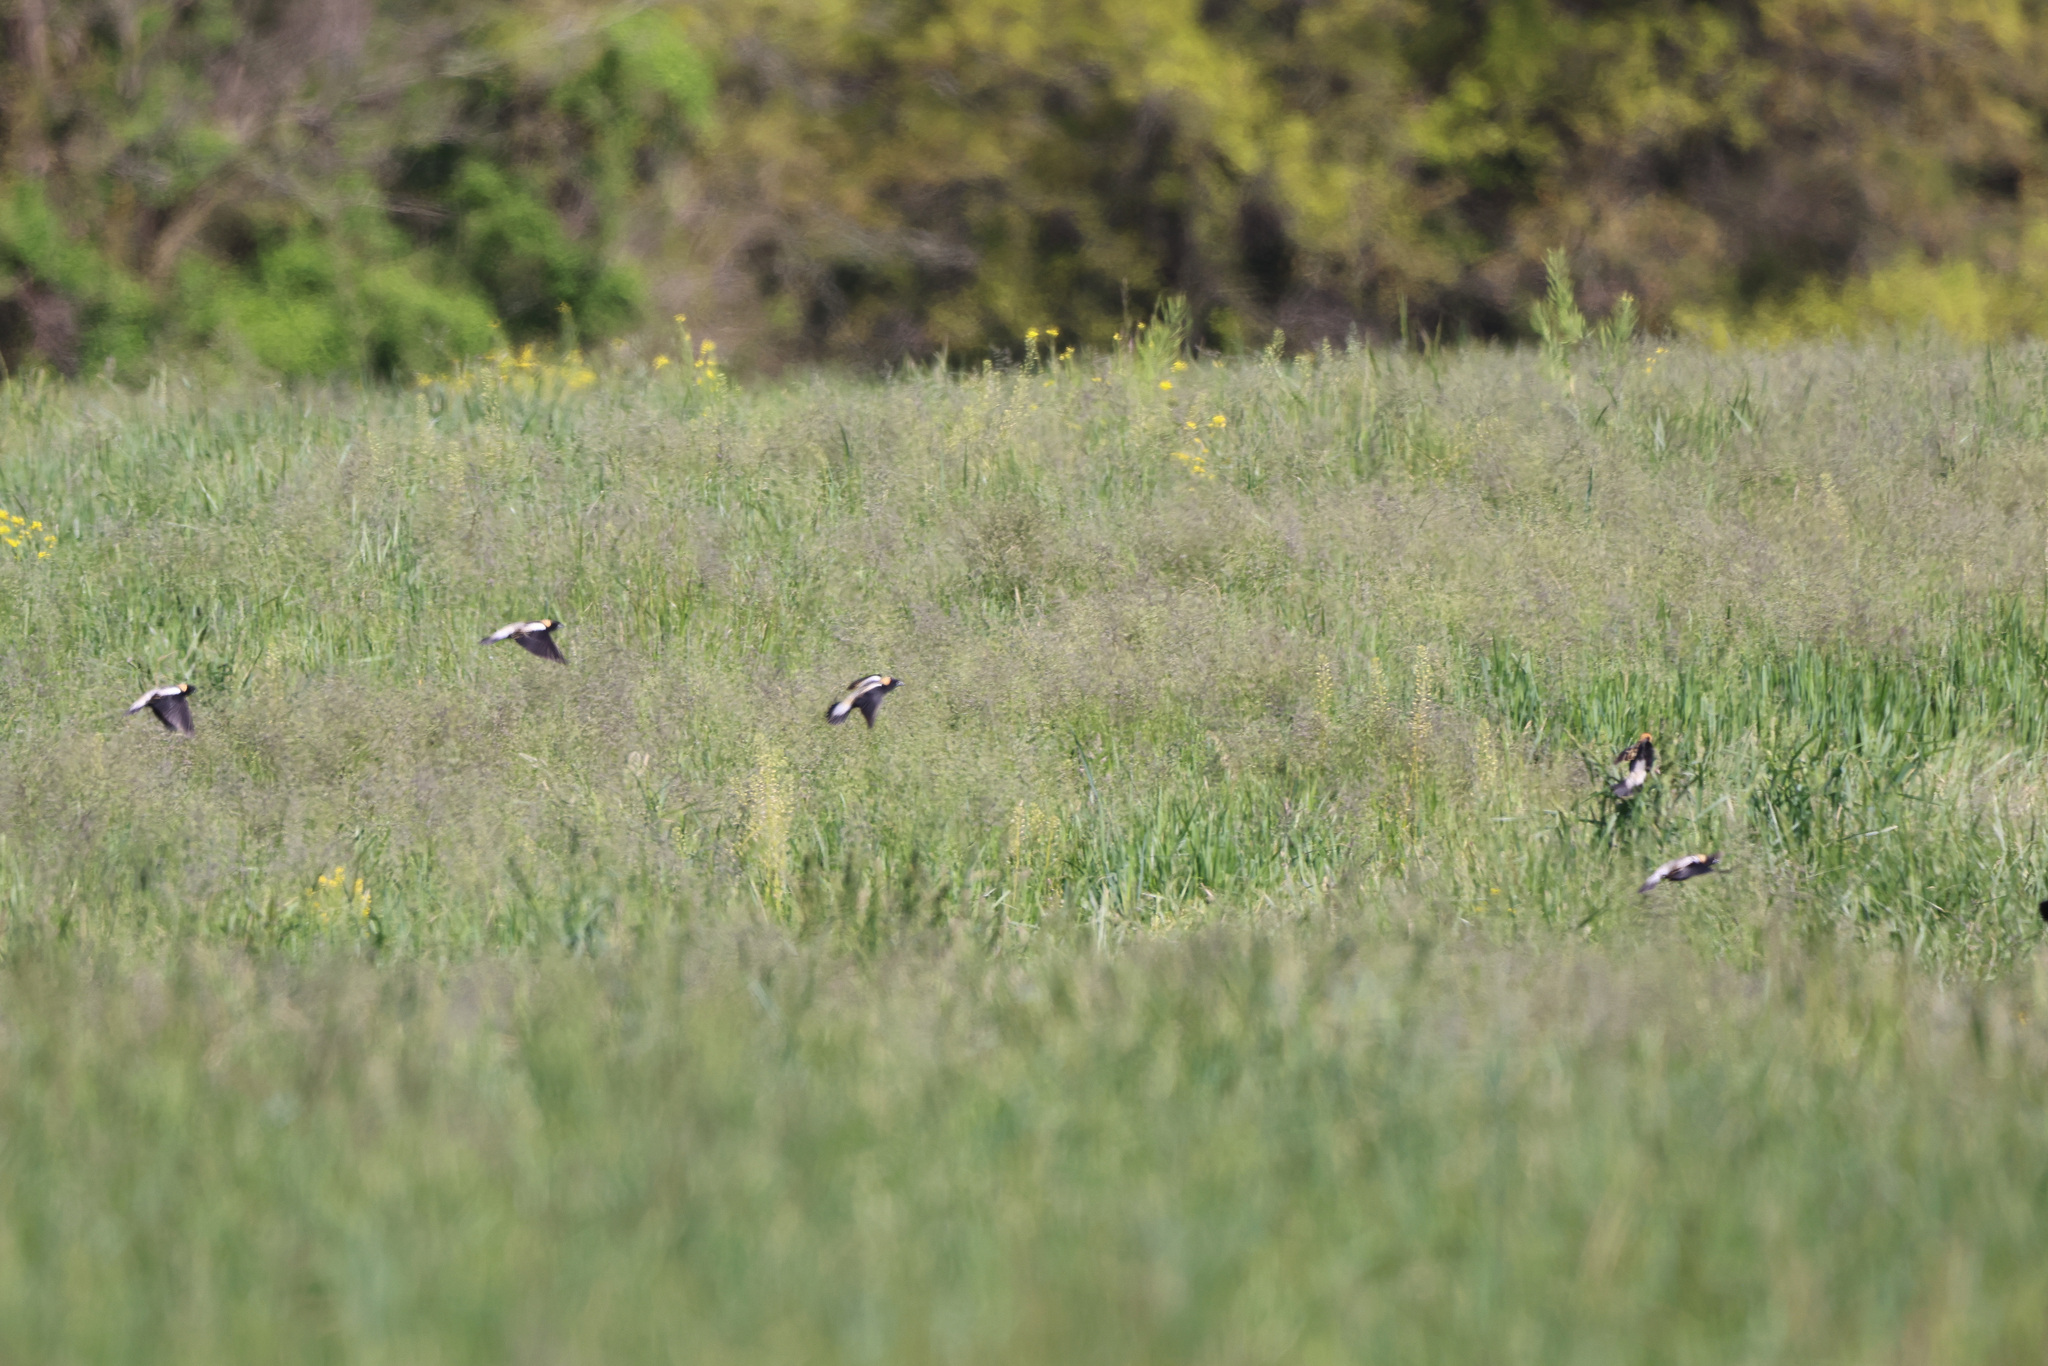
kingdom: Animalia
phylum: Chordata
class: Aves
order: Passeriformes
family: Icteridae
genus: Dolichonyx
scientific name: Dolichonyx oryzivorus
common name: Bobolink
